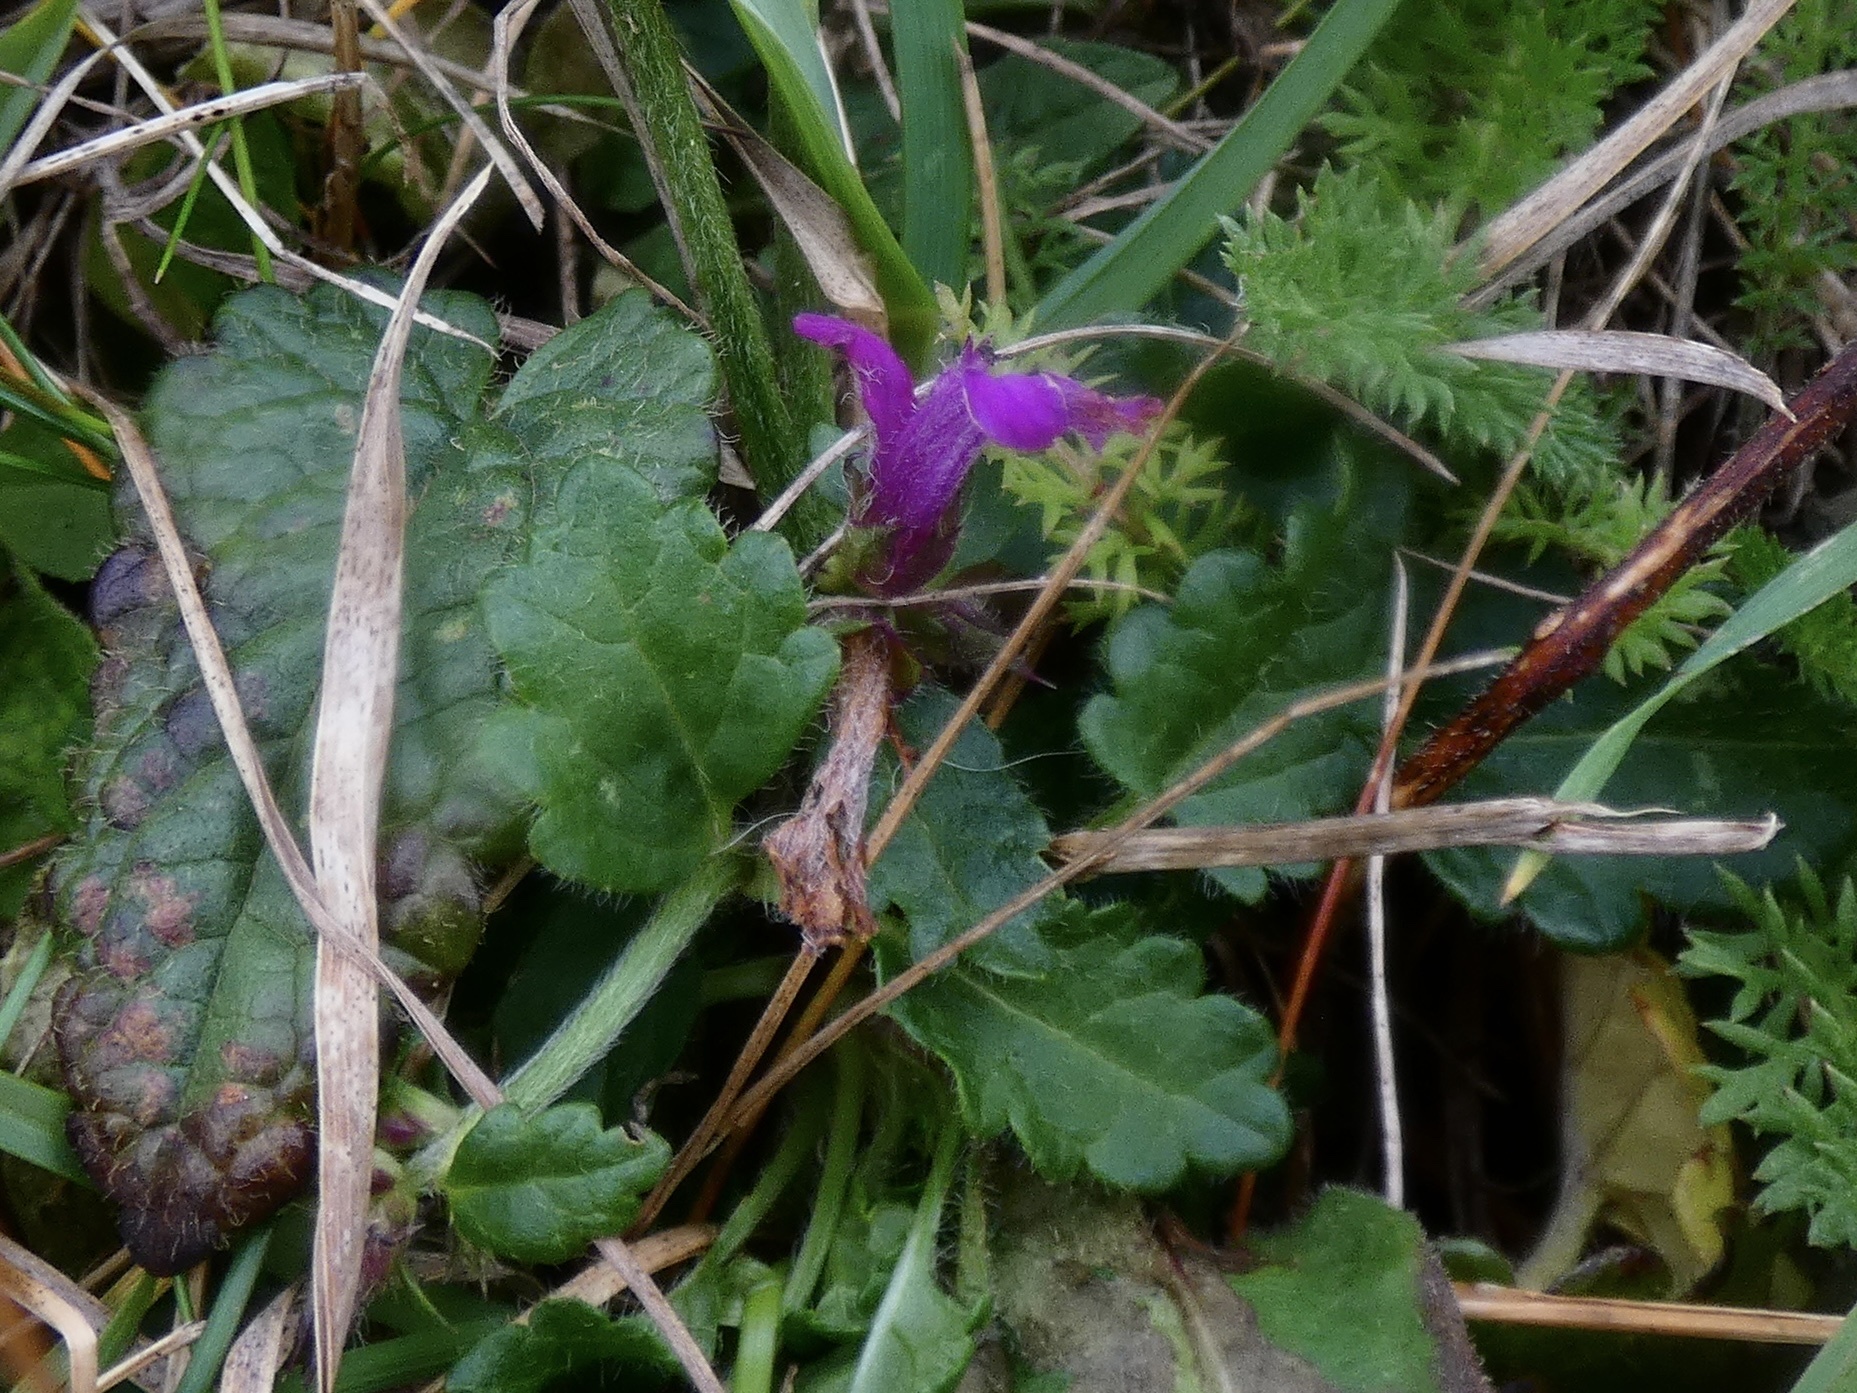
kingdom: Plantae
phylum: Tracheophyta
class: Magnoliopsida
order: Lamiales
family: Lamiaceae
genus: Betonica
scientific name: Betonica officinalis
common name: Bishop's-wort
